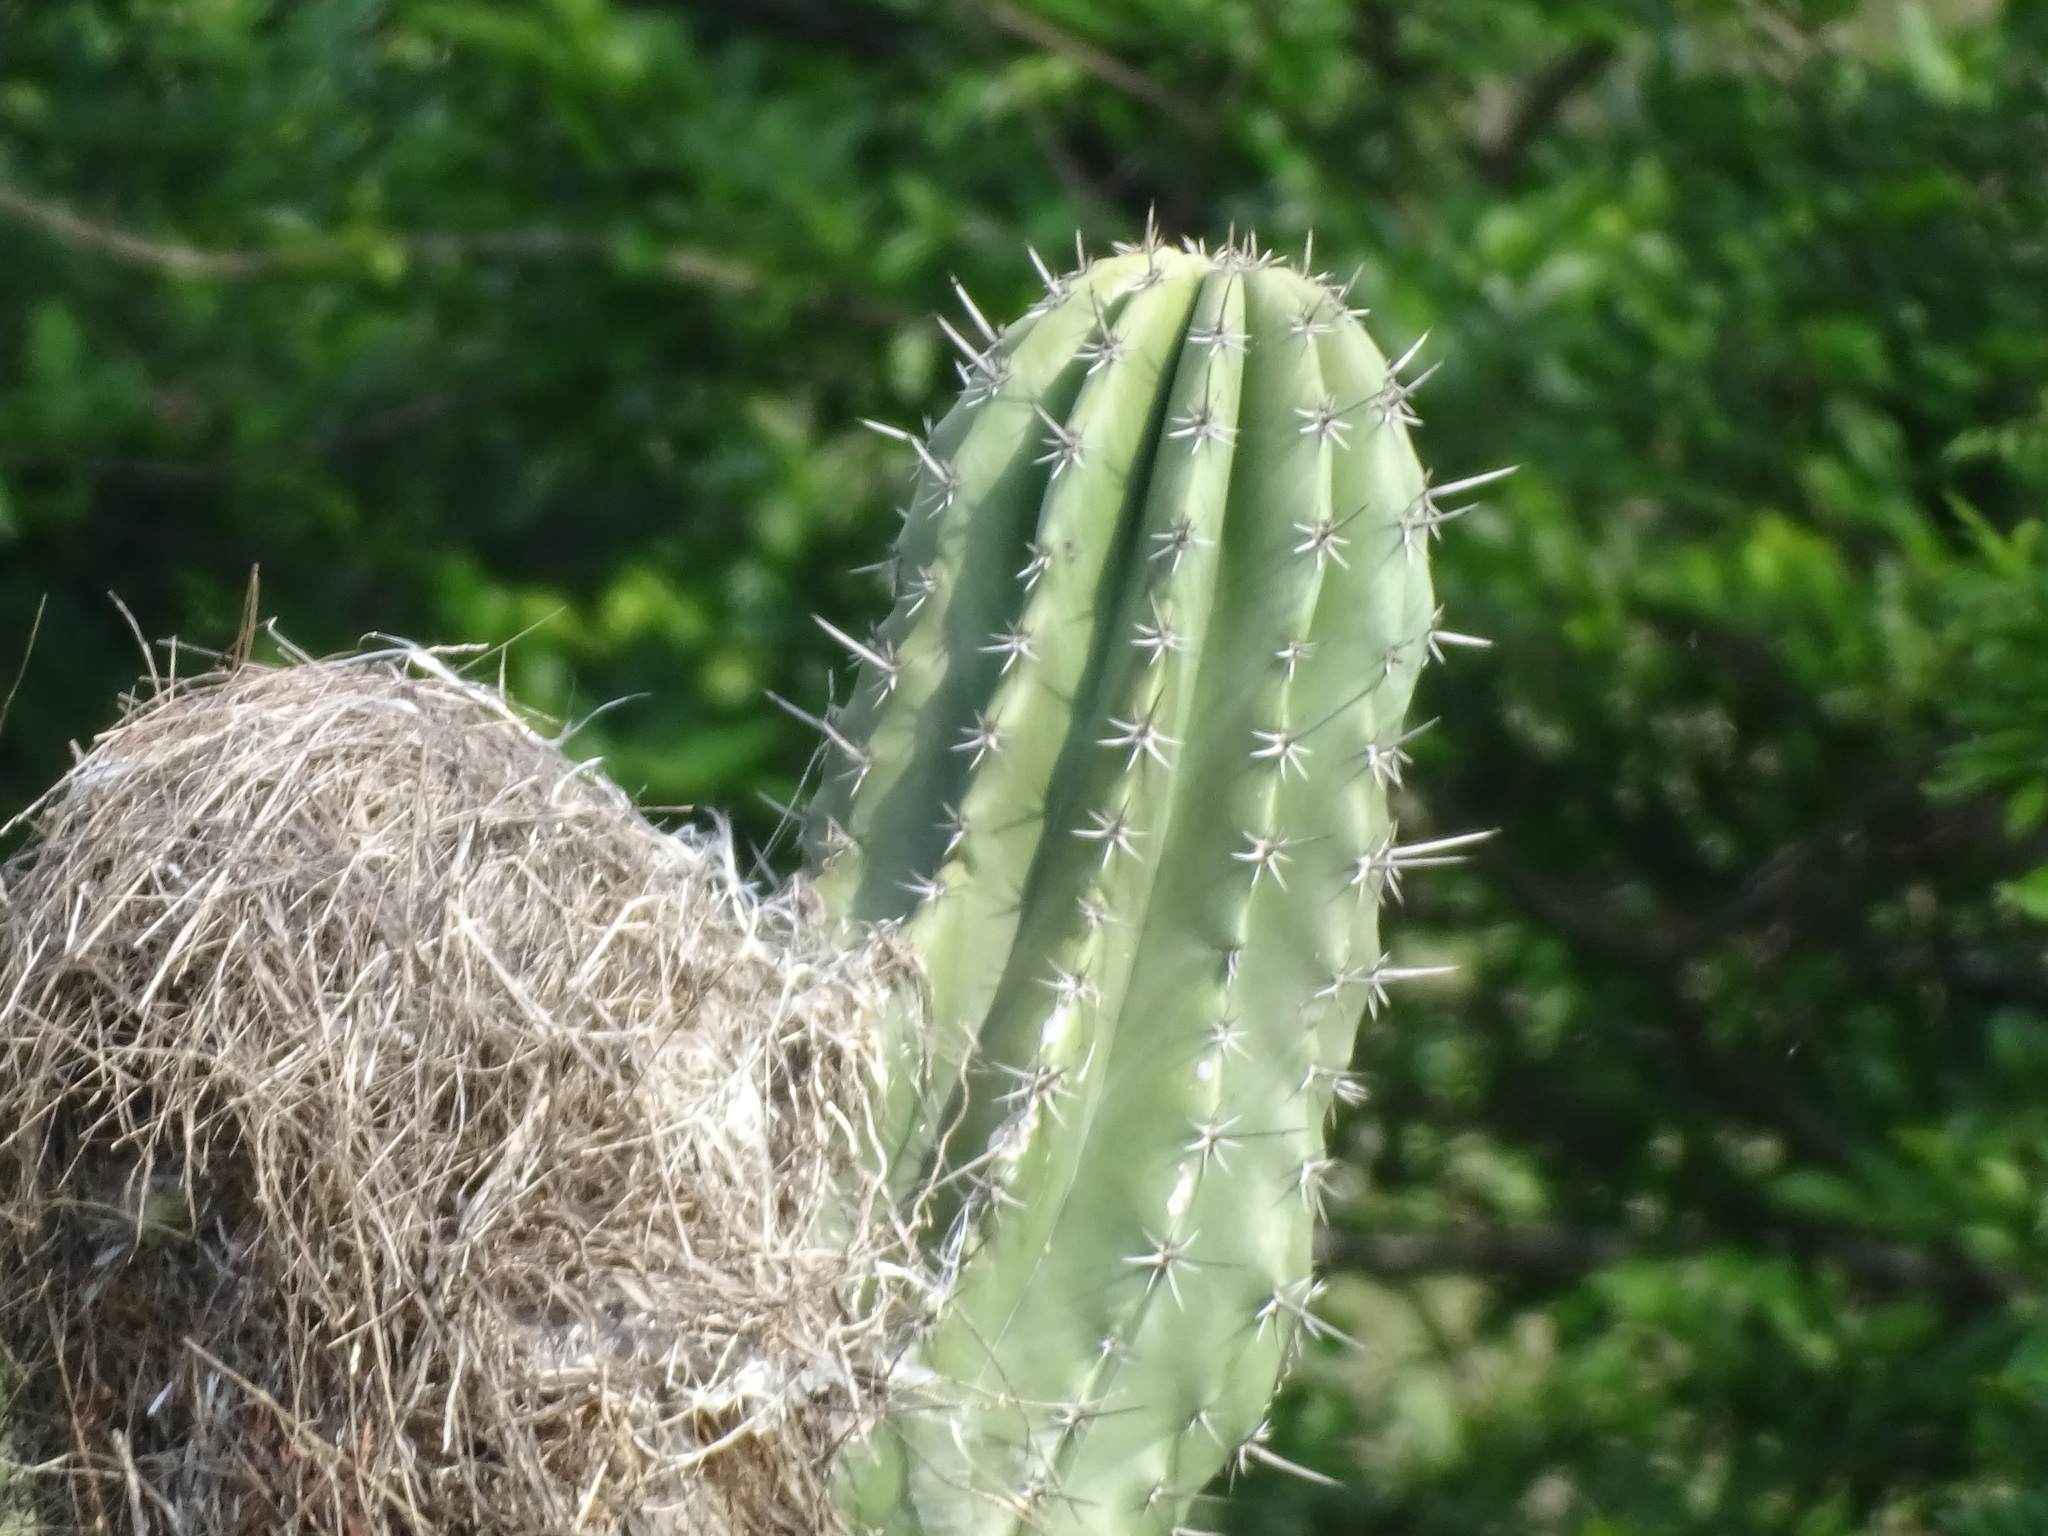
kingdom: Plantae
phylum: Tracheophyta
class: Magnoliopsida
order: Caryophyllales
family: Cactaceae
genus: Pachycereus
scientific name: Pachycereus pecten-aboriginum
